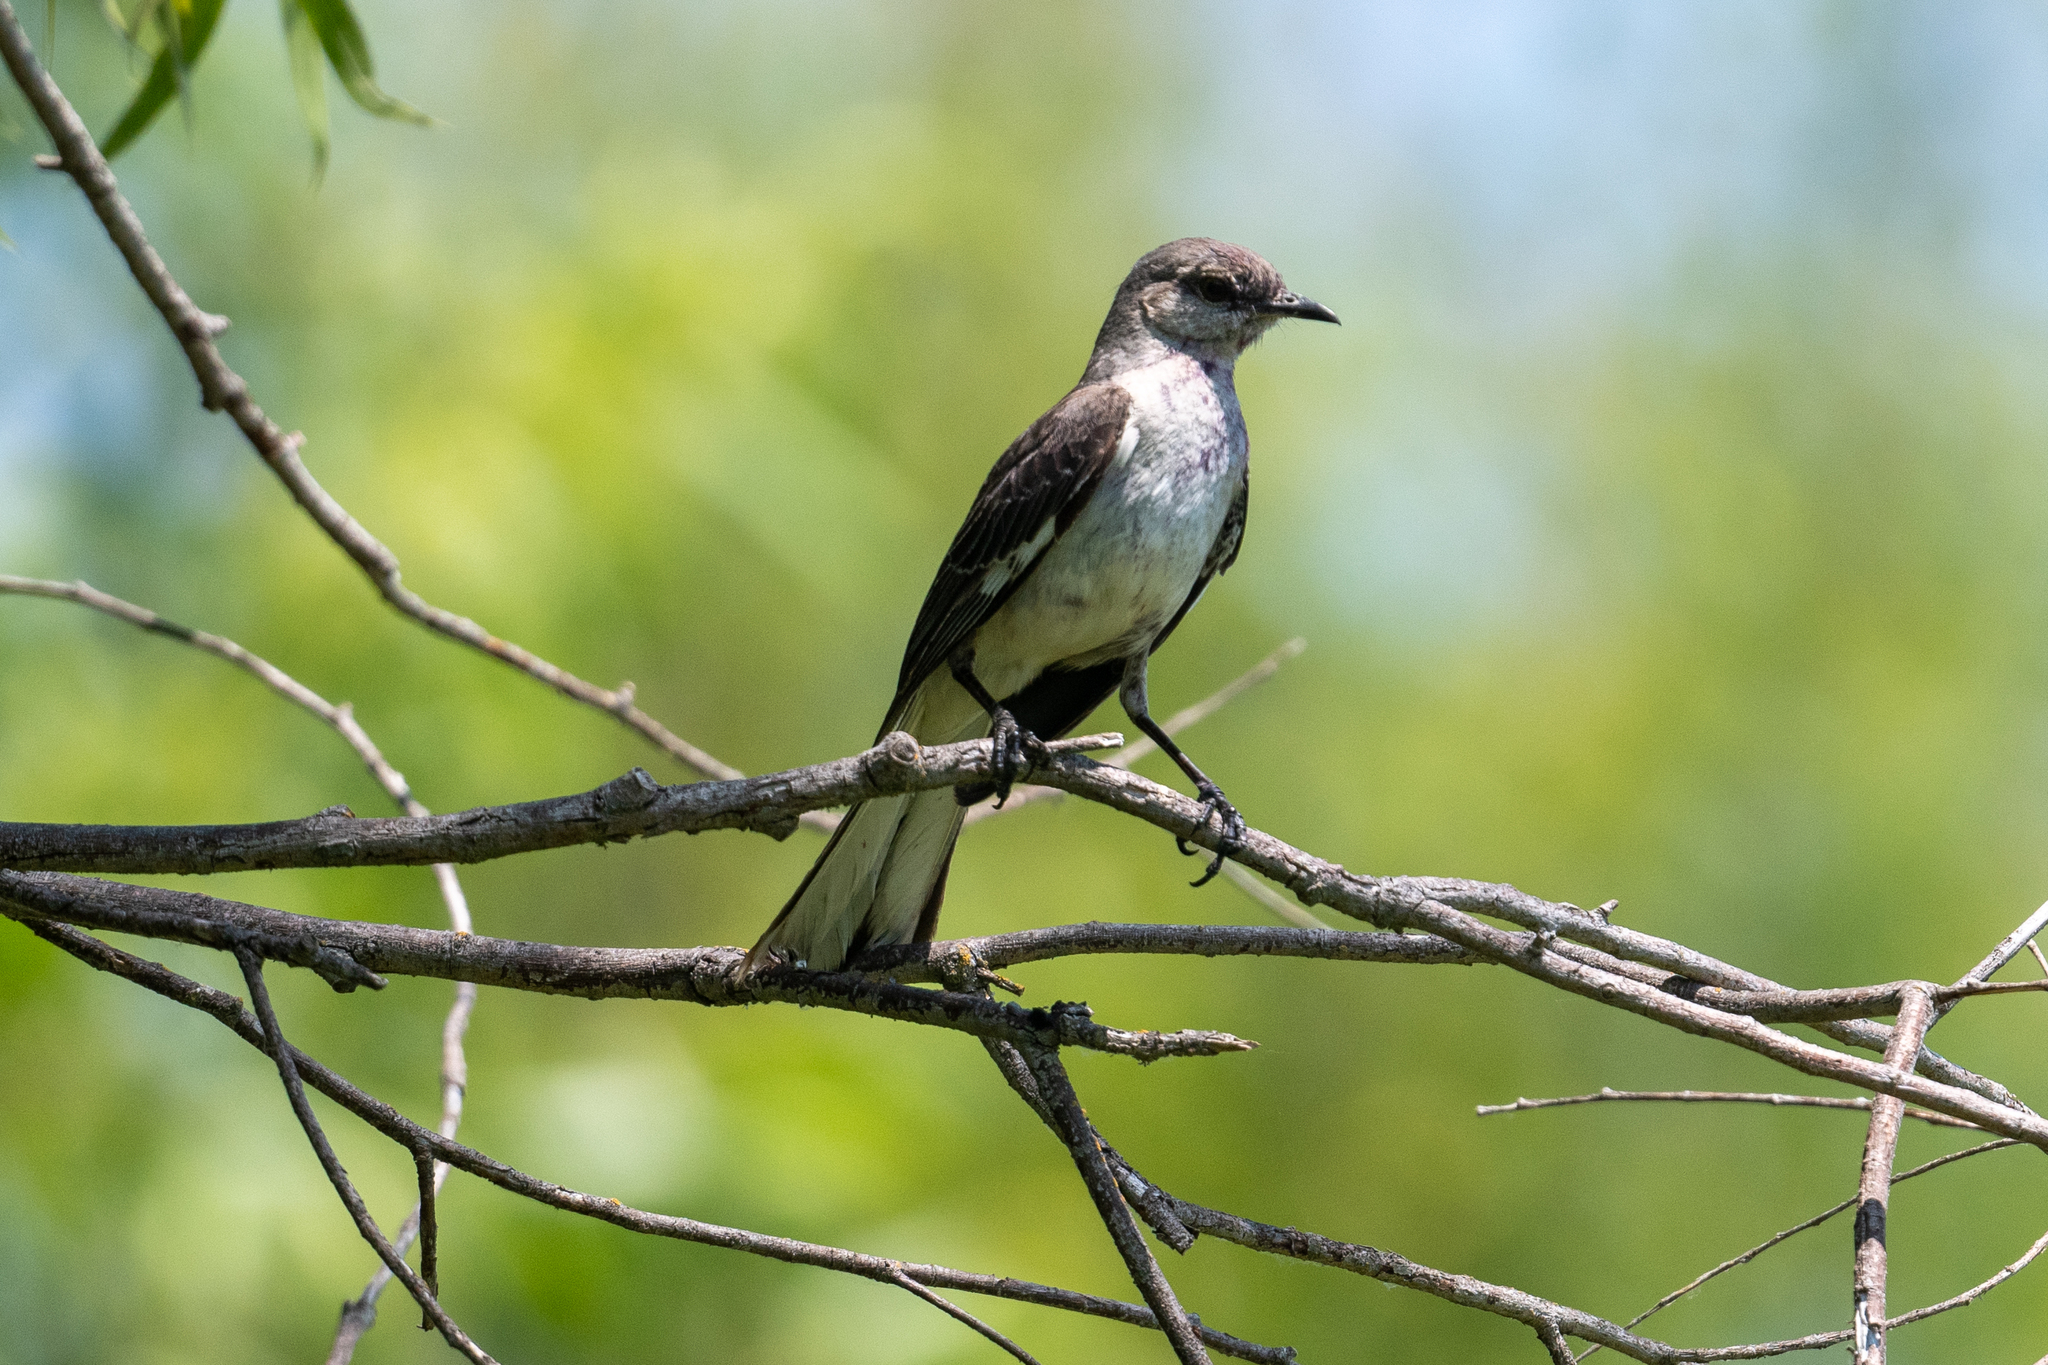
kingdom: Animalia
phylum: Chordata
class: Aves
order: Passeriformes
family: Mimidae
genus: Mimus
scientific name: Mimus polyglottos
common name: Northern mockingbird
